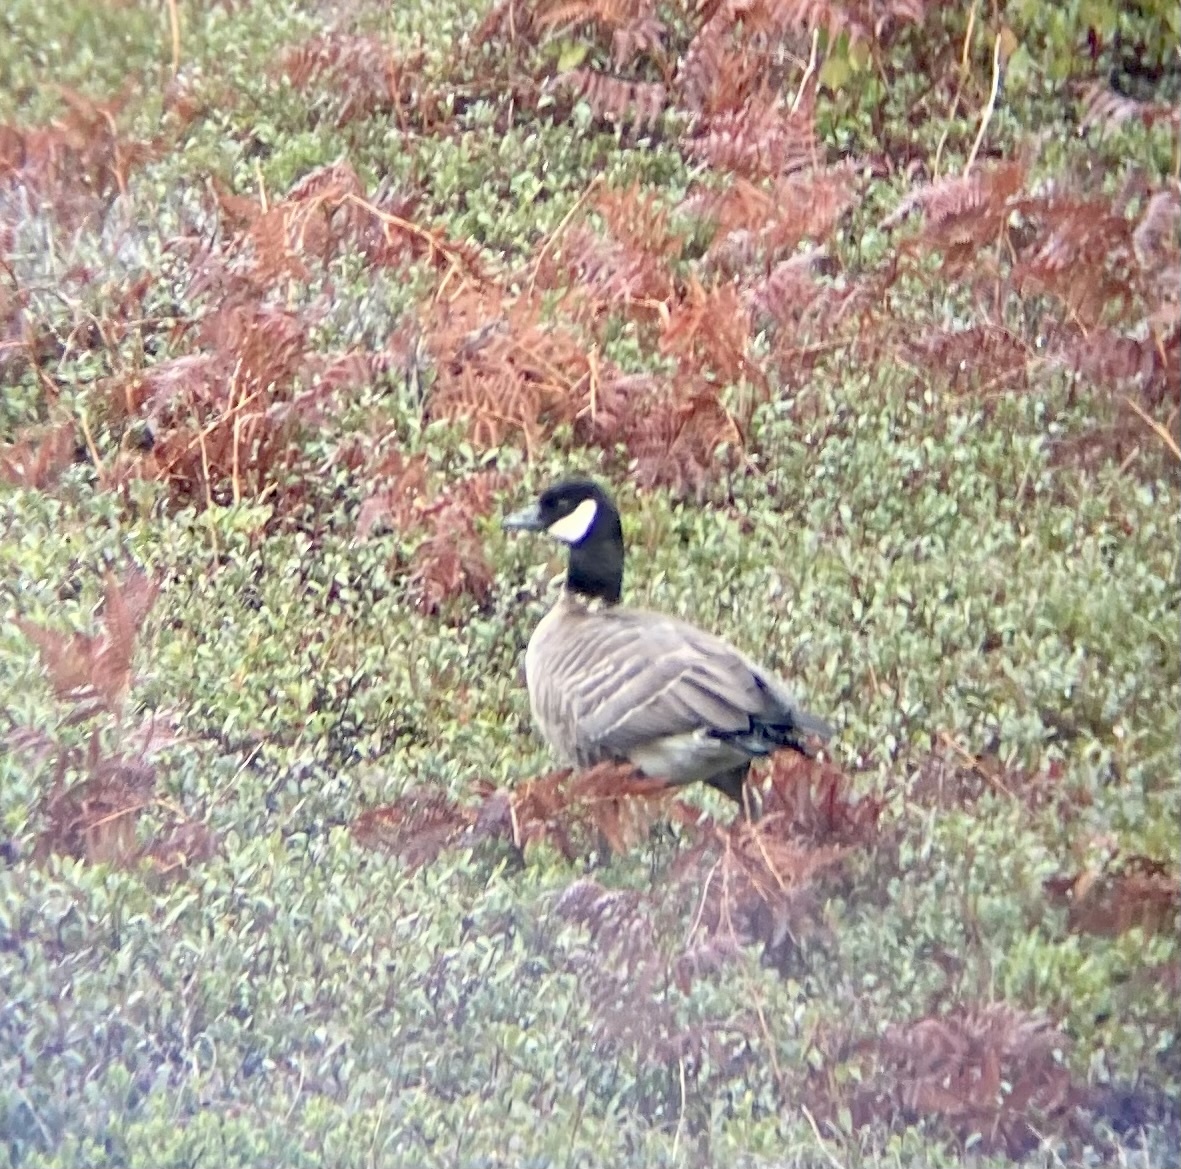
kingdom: Animalia
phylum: Chordata
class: Aves
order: Anseriformes
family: Anatidae
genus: Branta
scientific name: Branta hutchinsii
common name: Cackling goose
